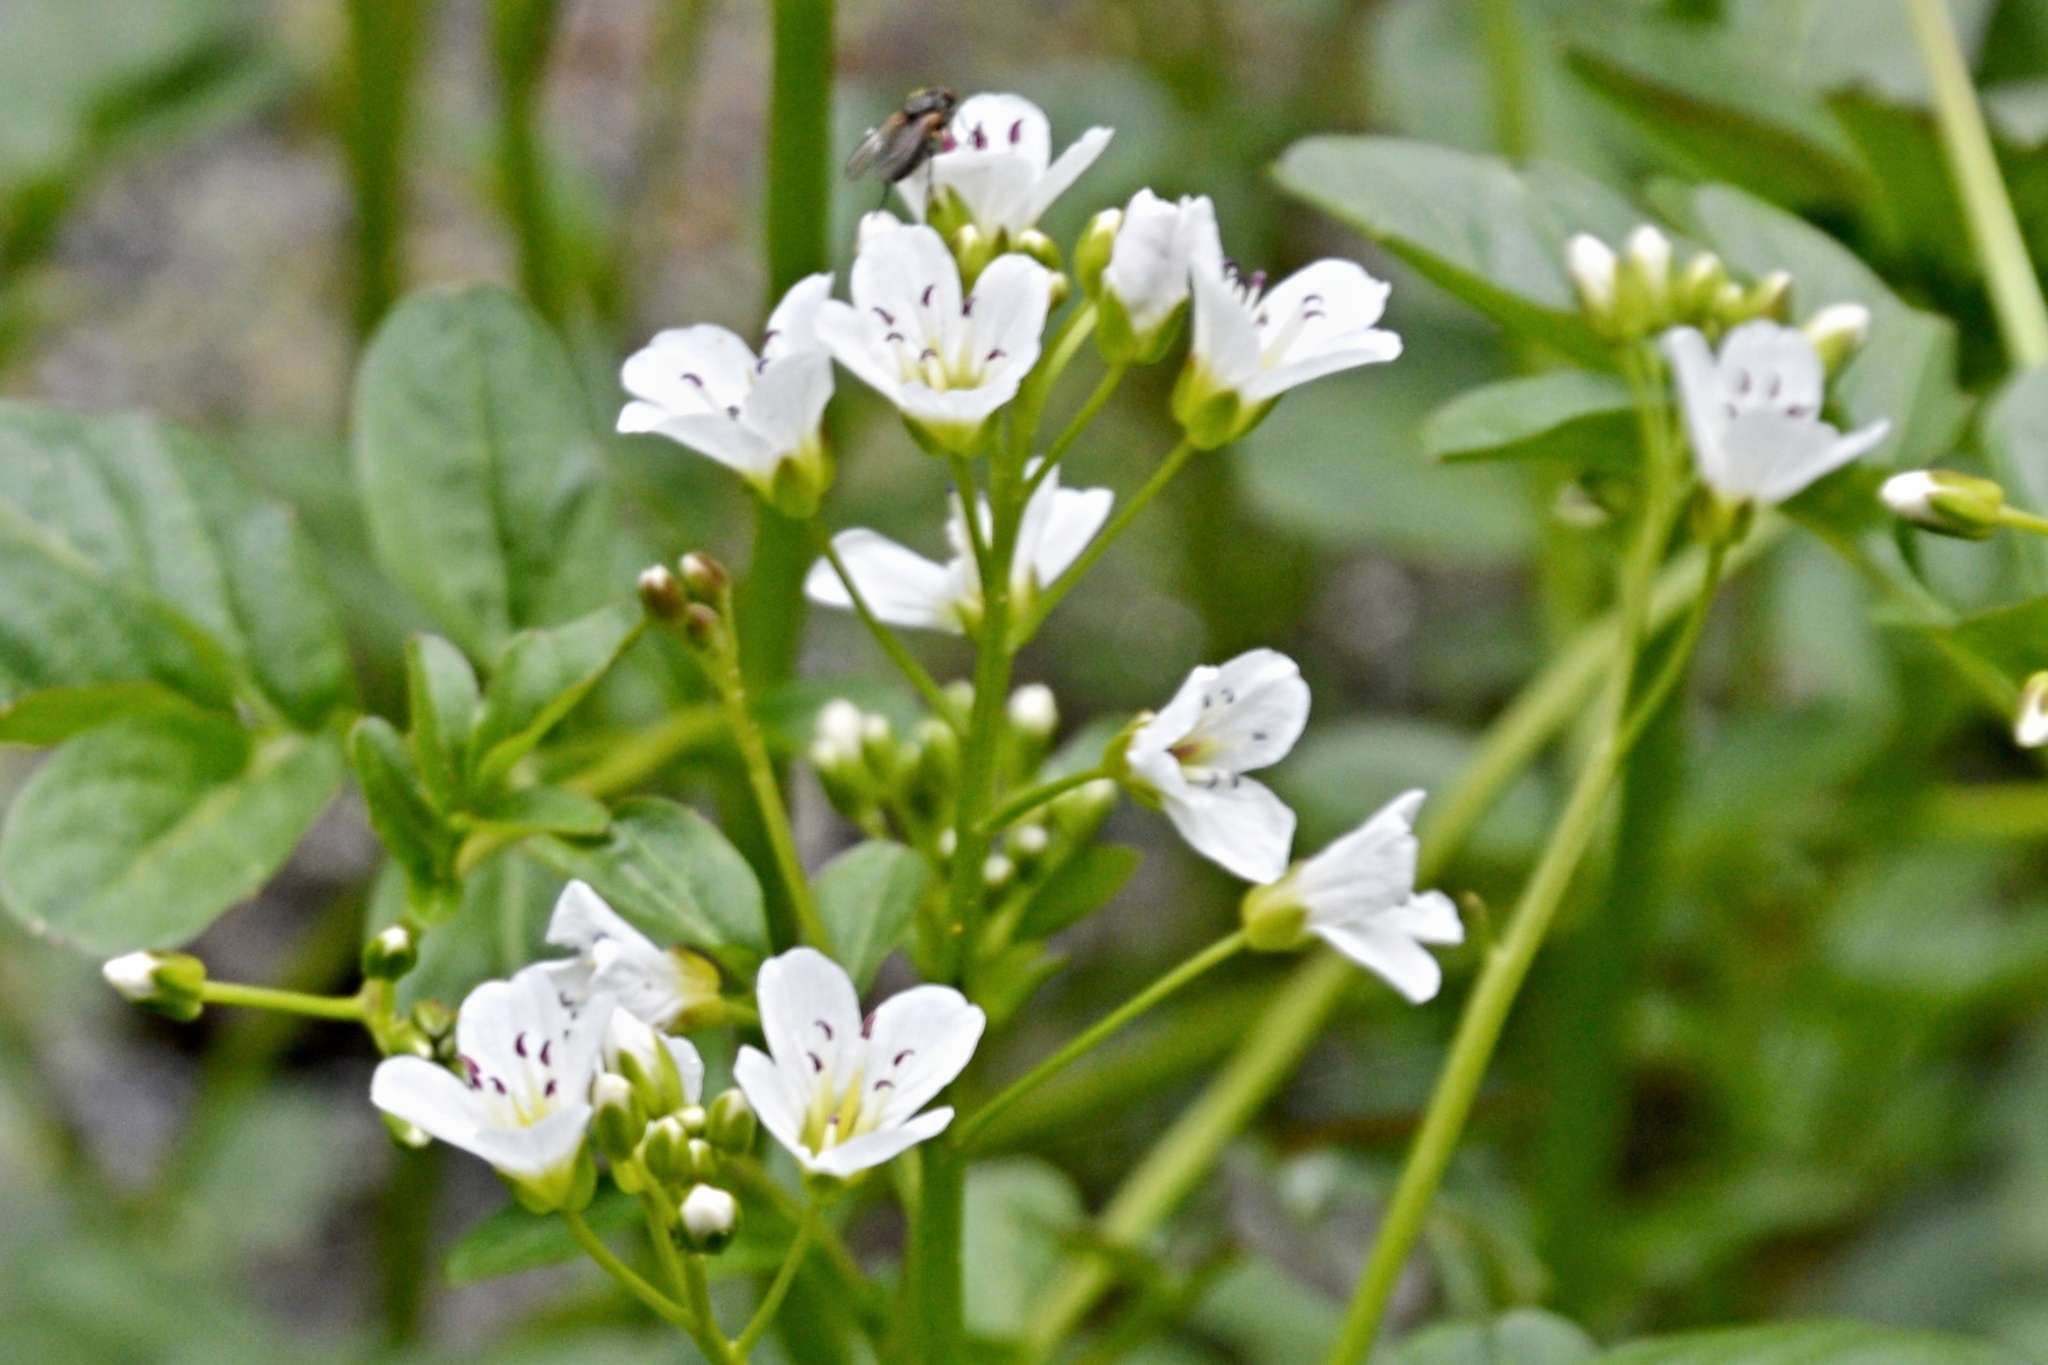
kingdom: Plantae
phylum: Tracheophyta
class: Magnoliopsida
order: Brassicales
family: Brassicaceae
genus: Cardamine
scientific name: Cardamine amara
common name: Large bitter-cress
